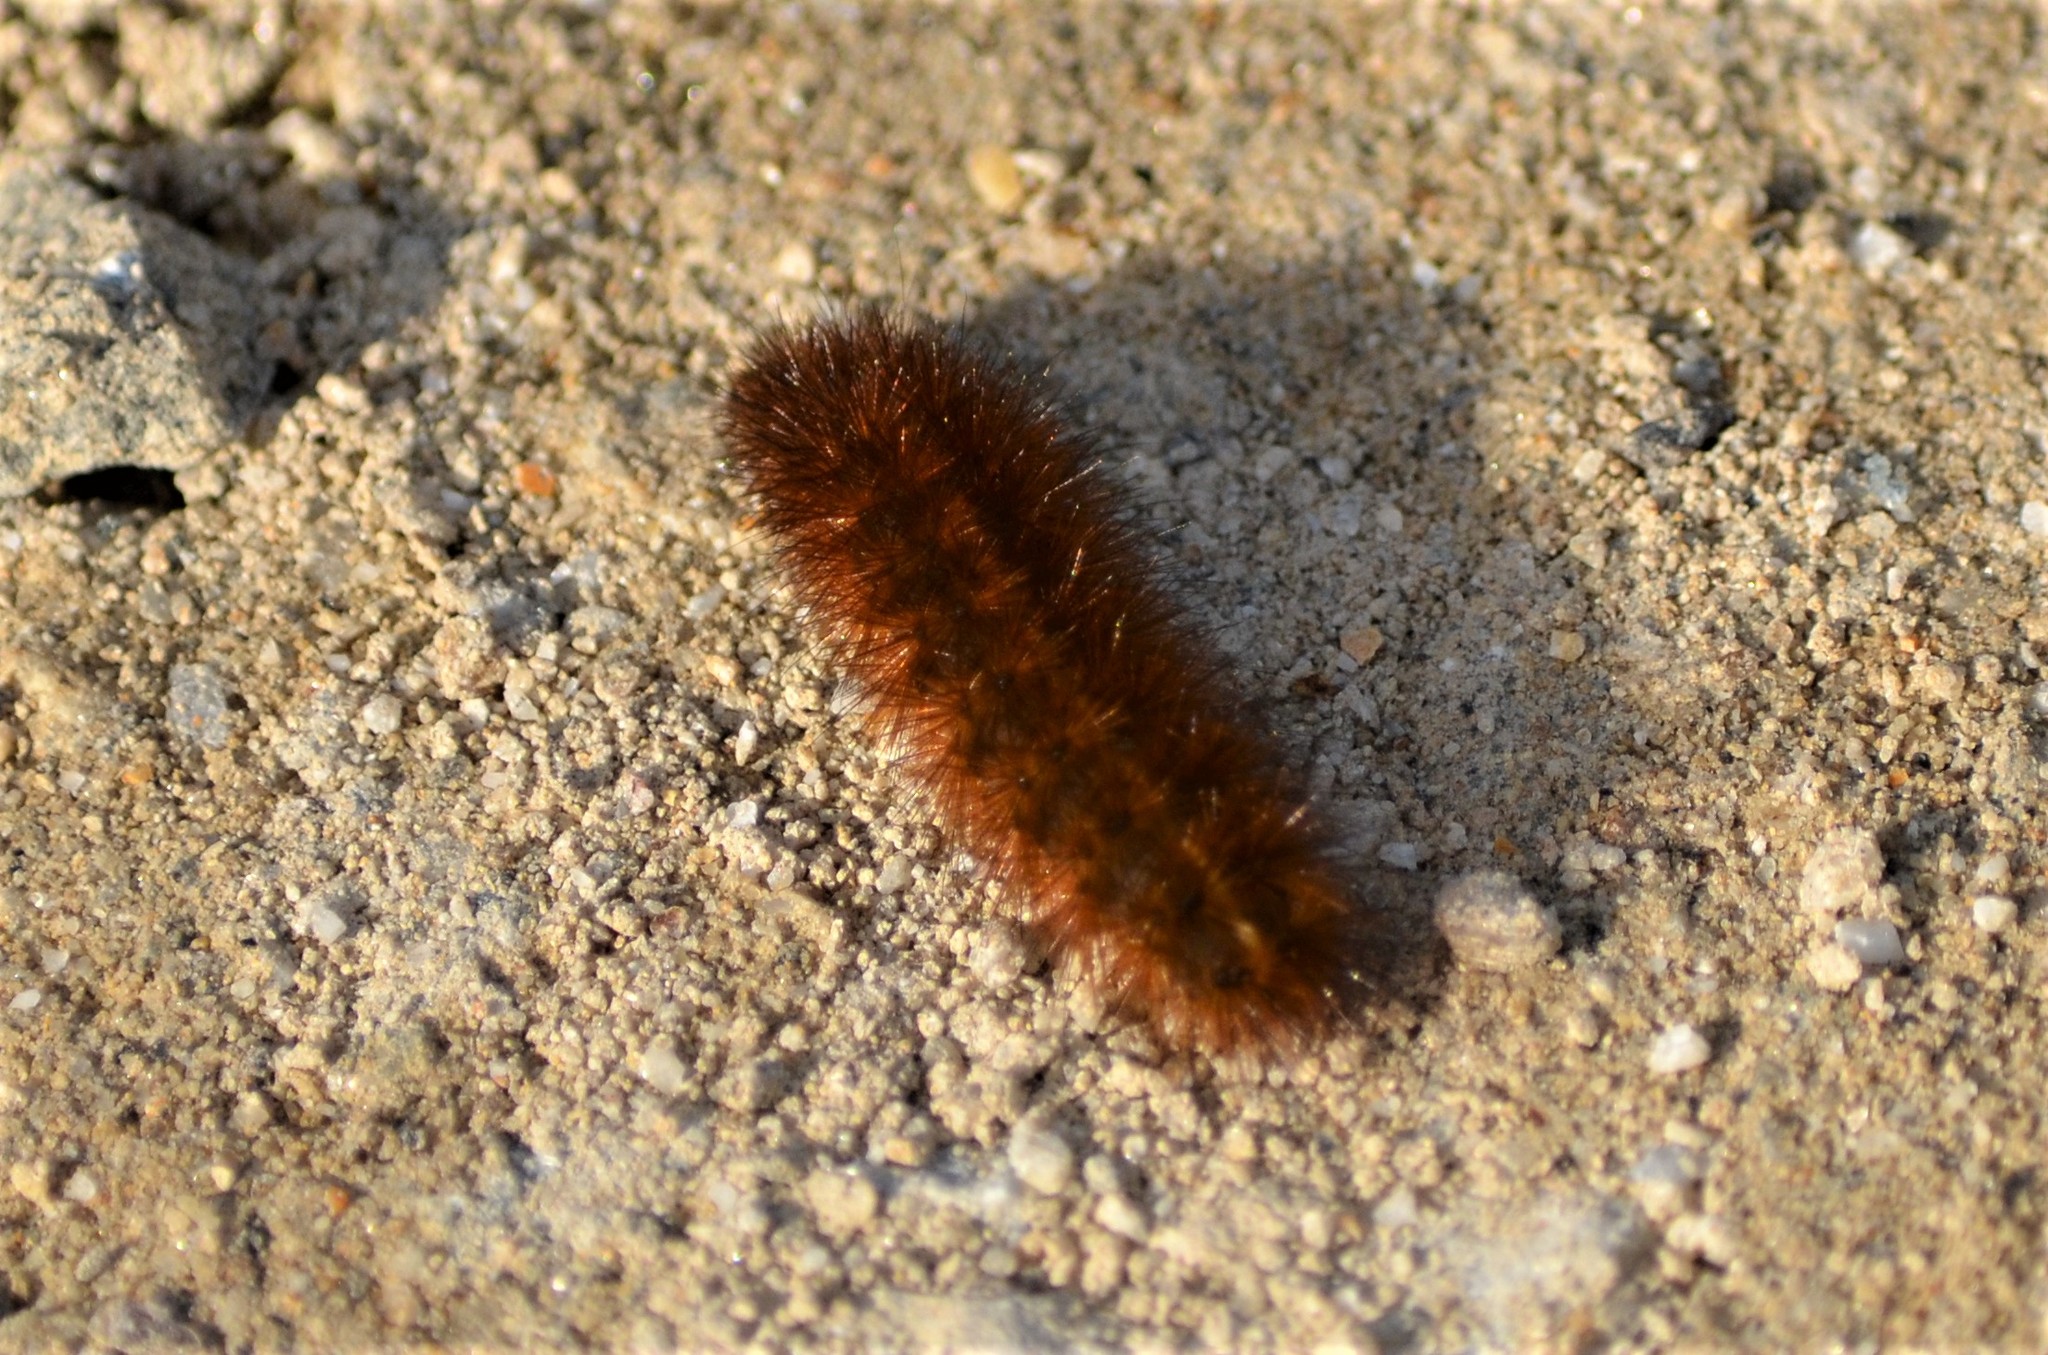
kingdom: Animalia
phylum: Arthropoda
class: Insecta
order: Lepidoptera
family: Erebidae
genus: Phragmatobia
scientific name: Phragmatobia fuliginosa
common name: Ruby tiger
